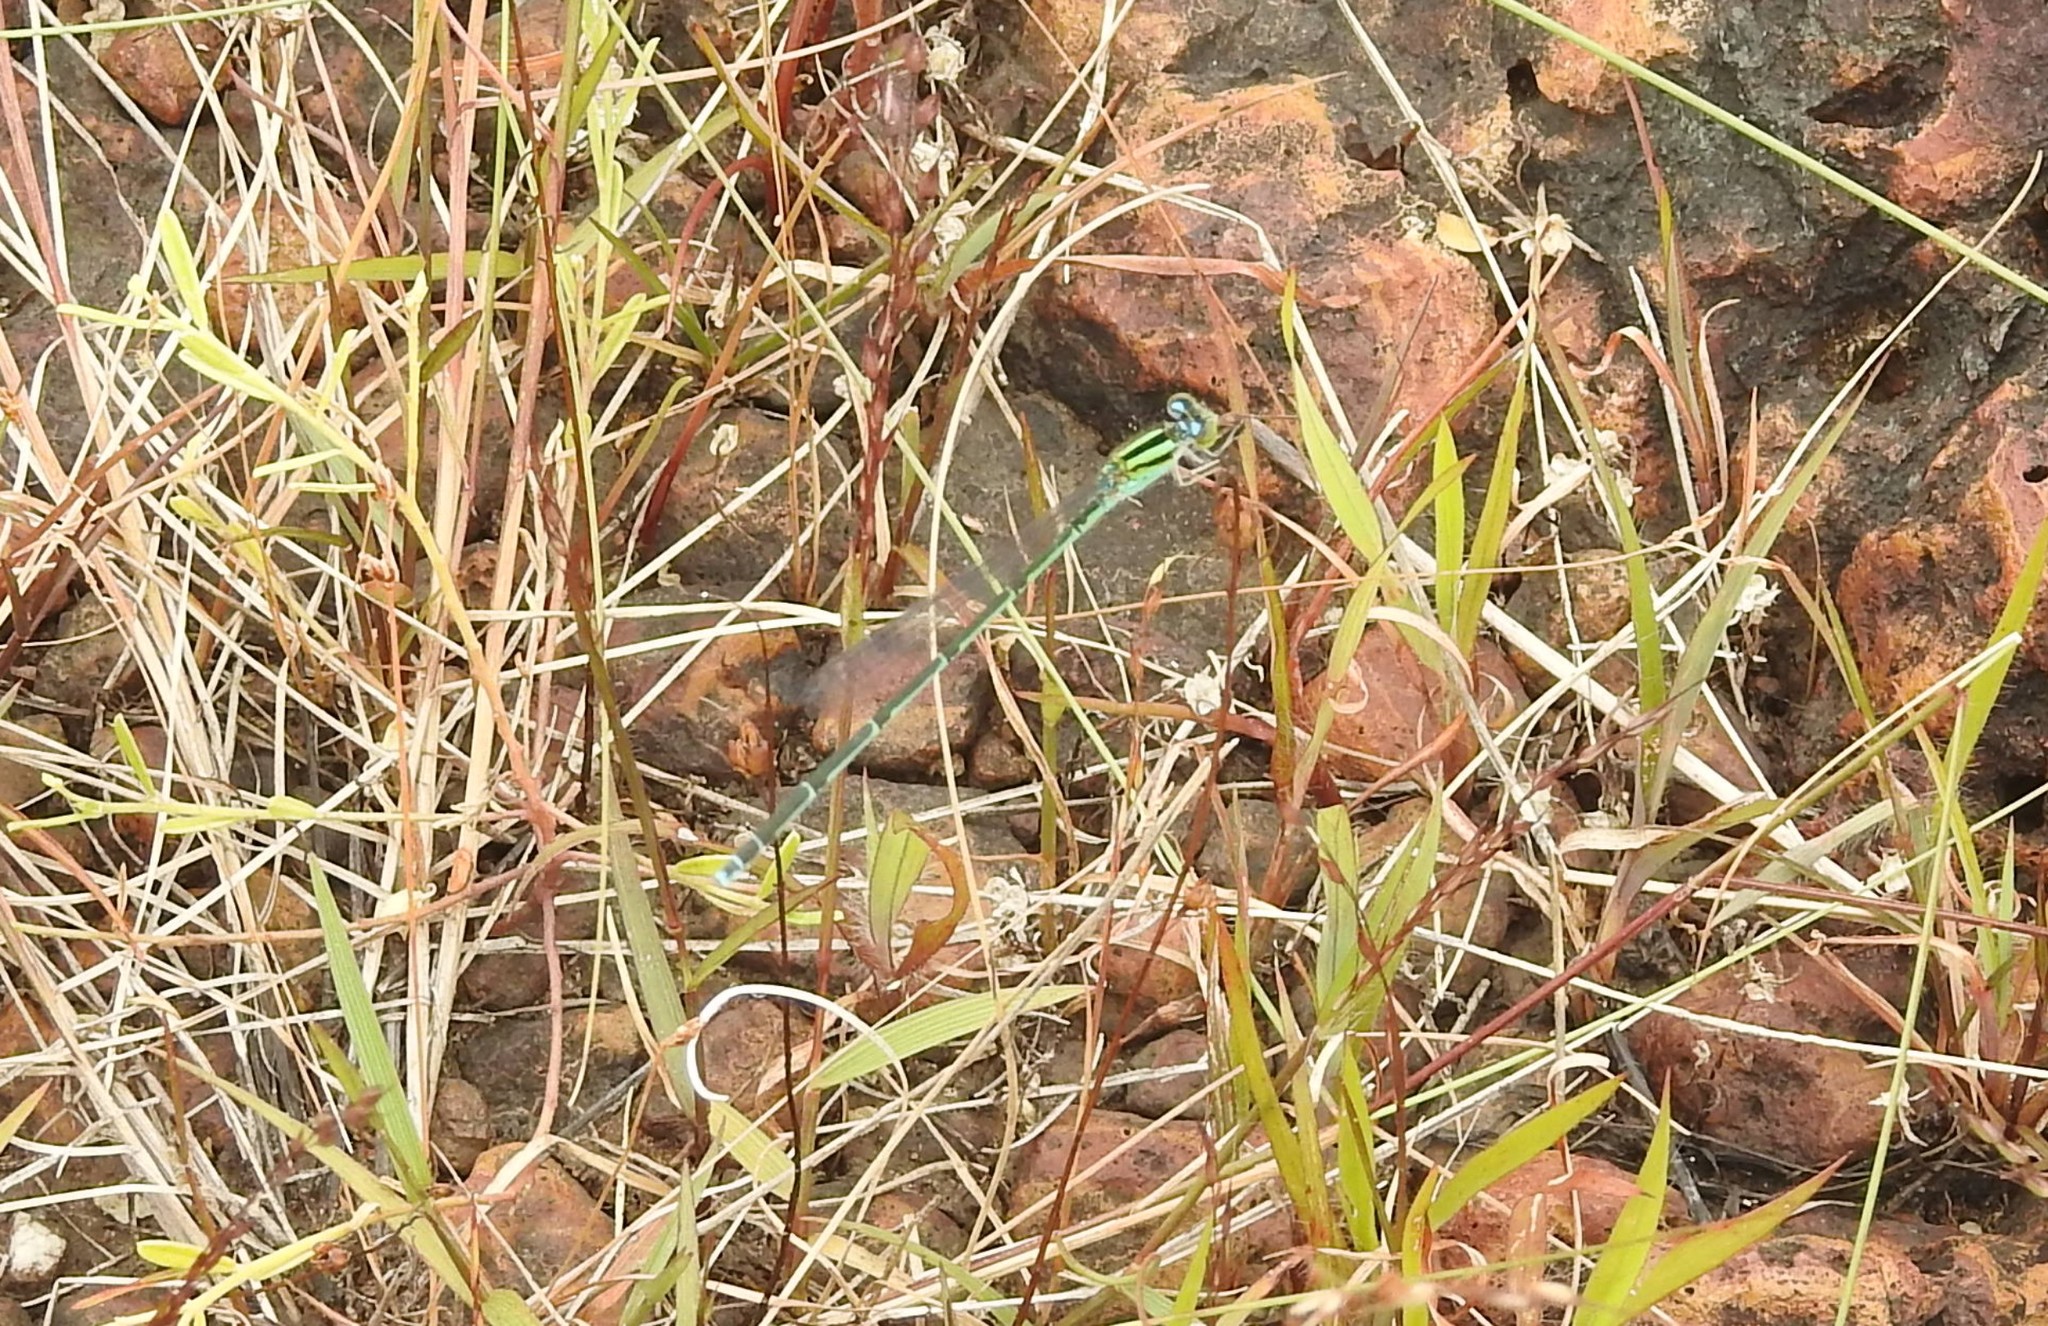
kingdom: Animalia
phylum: Arthropoda
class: Insecta
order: Odonata
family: Coenagrionidae
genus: Pseudagrion
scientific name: Pseudagrion malabaricum
